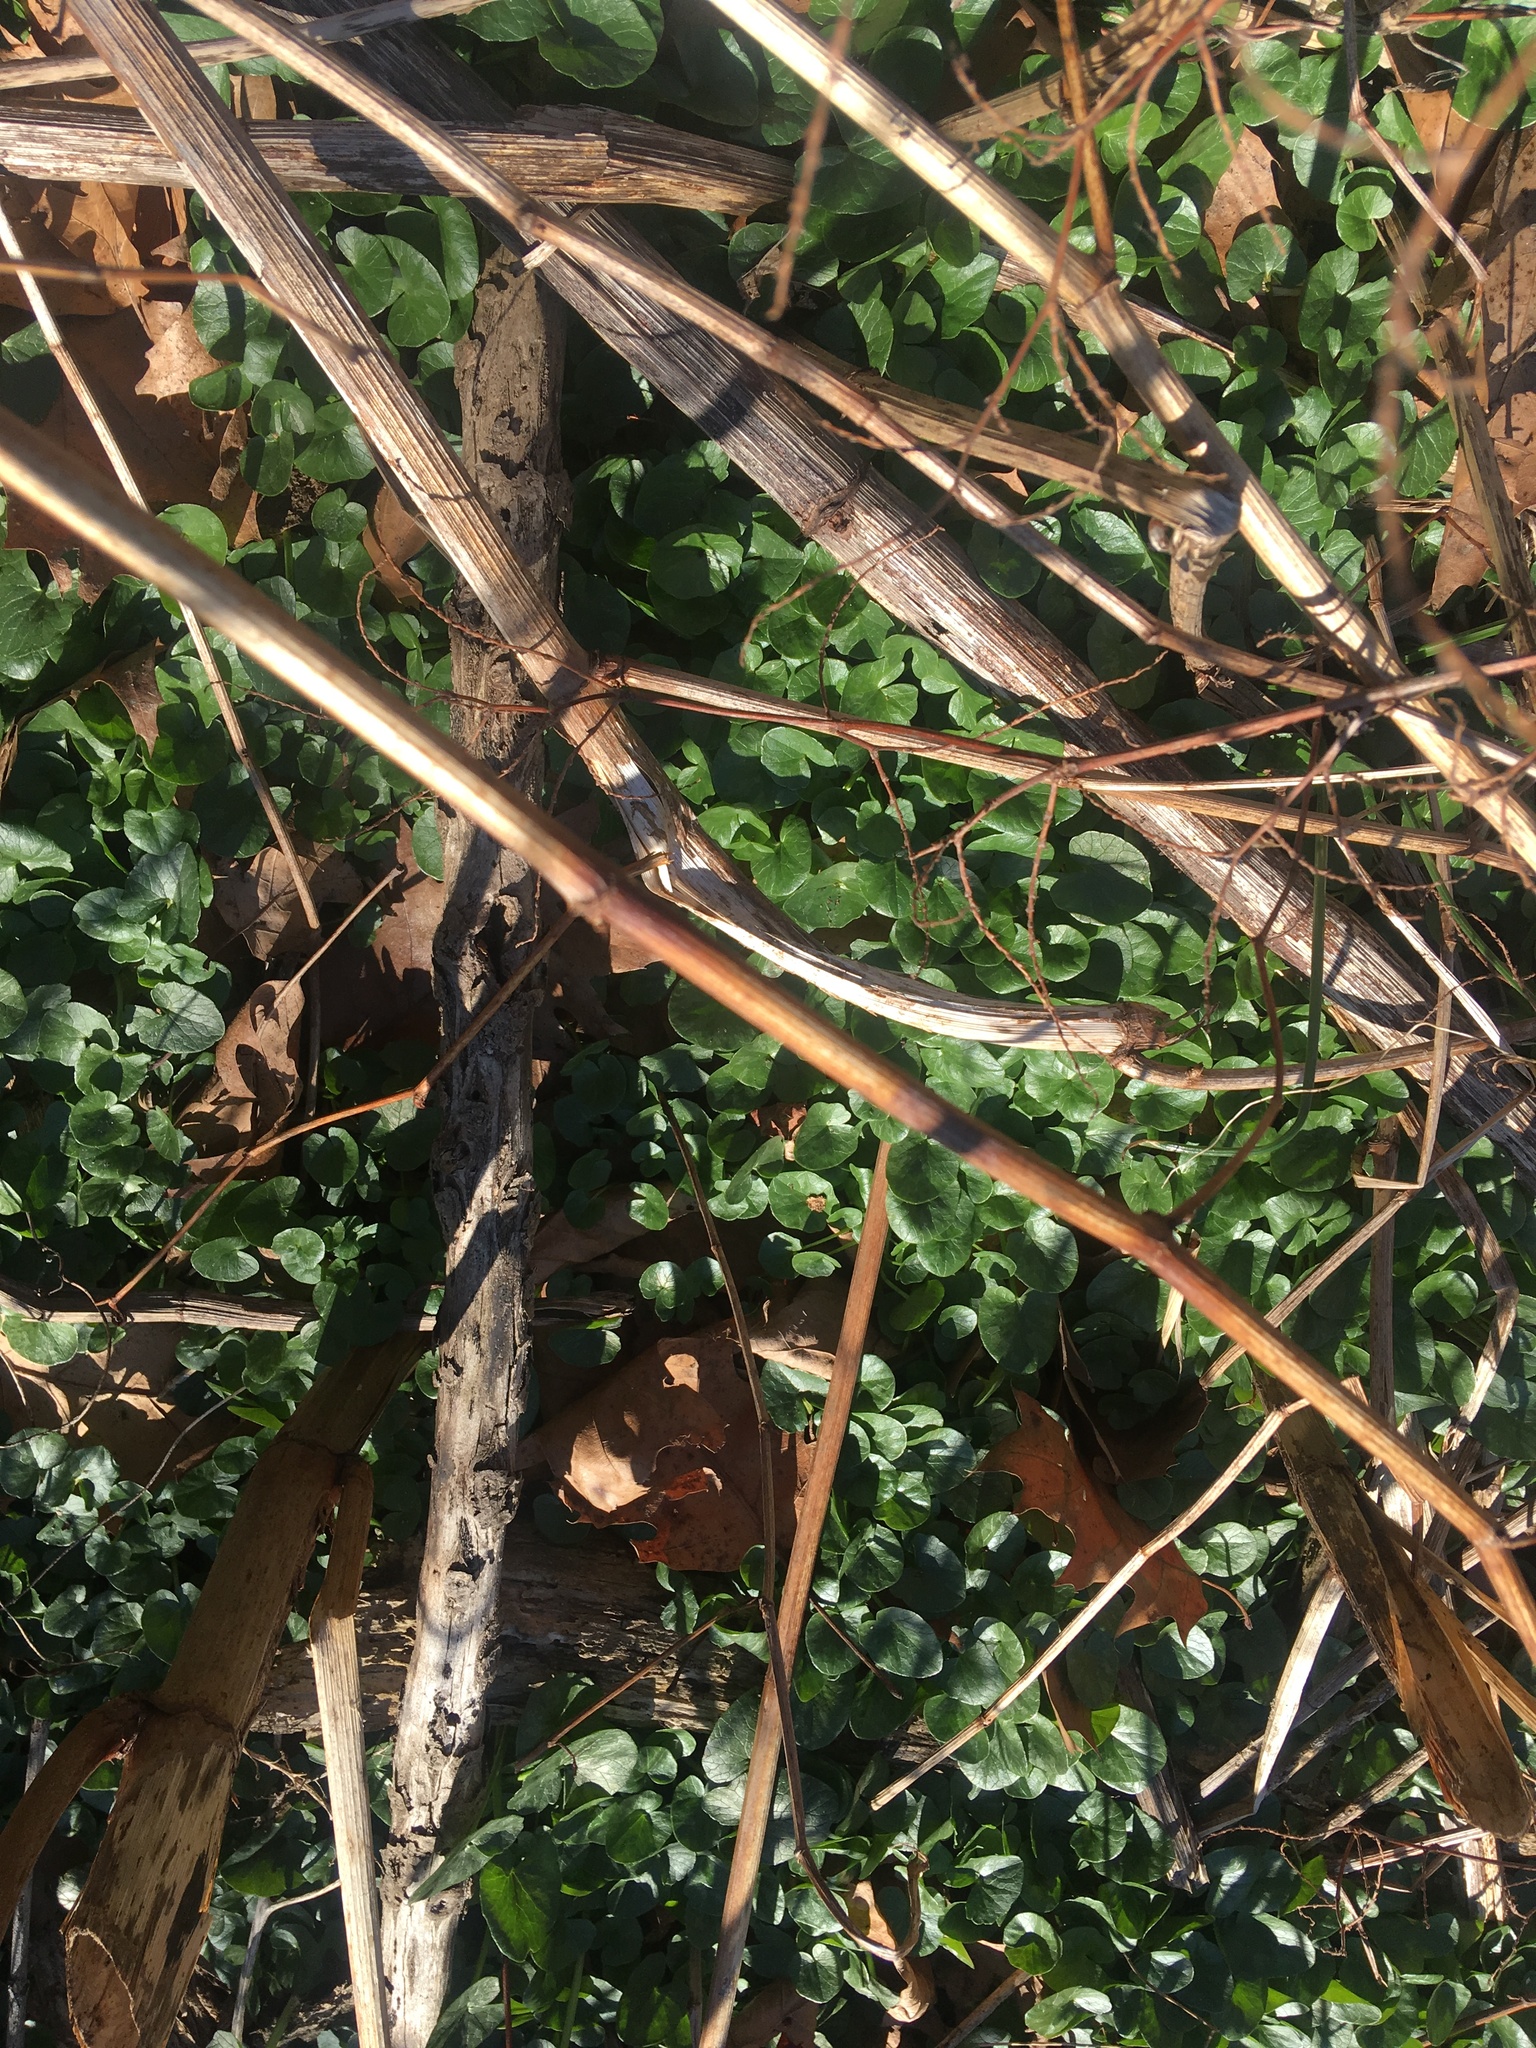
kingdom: Plantae
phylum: Tracheophyta
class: Magnoliopsida
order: Ranunculales
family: Ranunculaceae
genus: Ficaria
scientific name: Ficaria verna
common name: Lesser celandine
